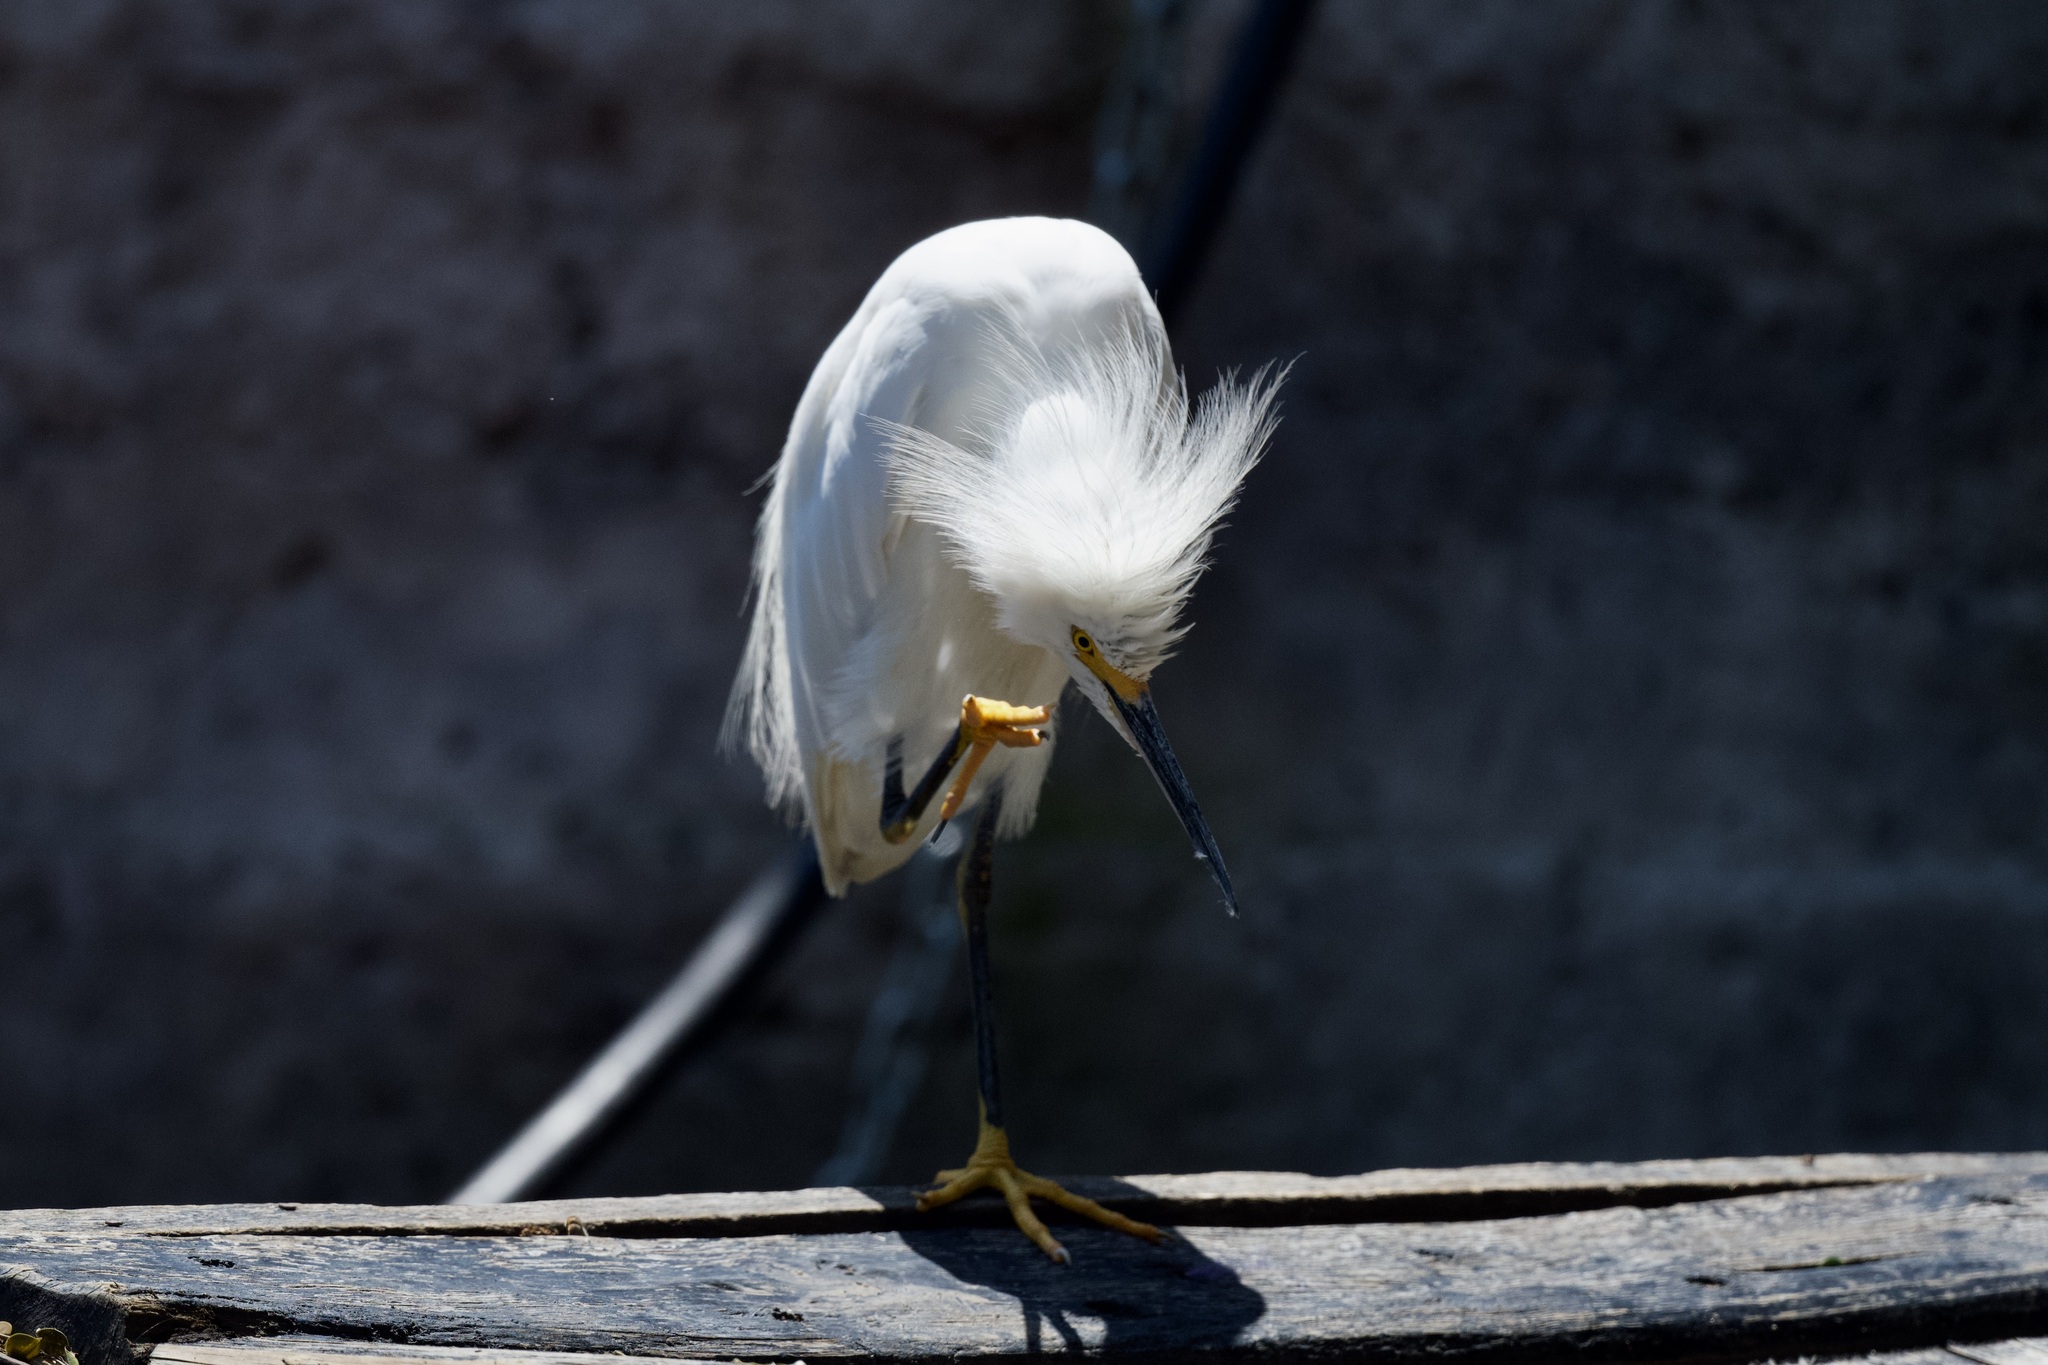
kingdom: Animalia
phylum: Chordata
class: Aves
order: Pelecaniformes
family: Ardeidae
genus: Egretta
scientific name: Egretta thula
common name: Snowy egret
